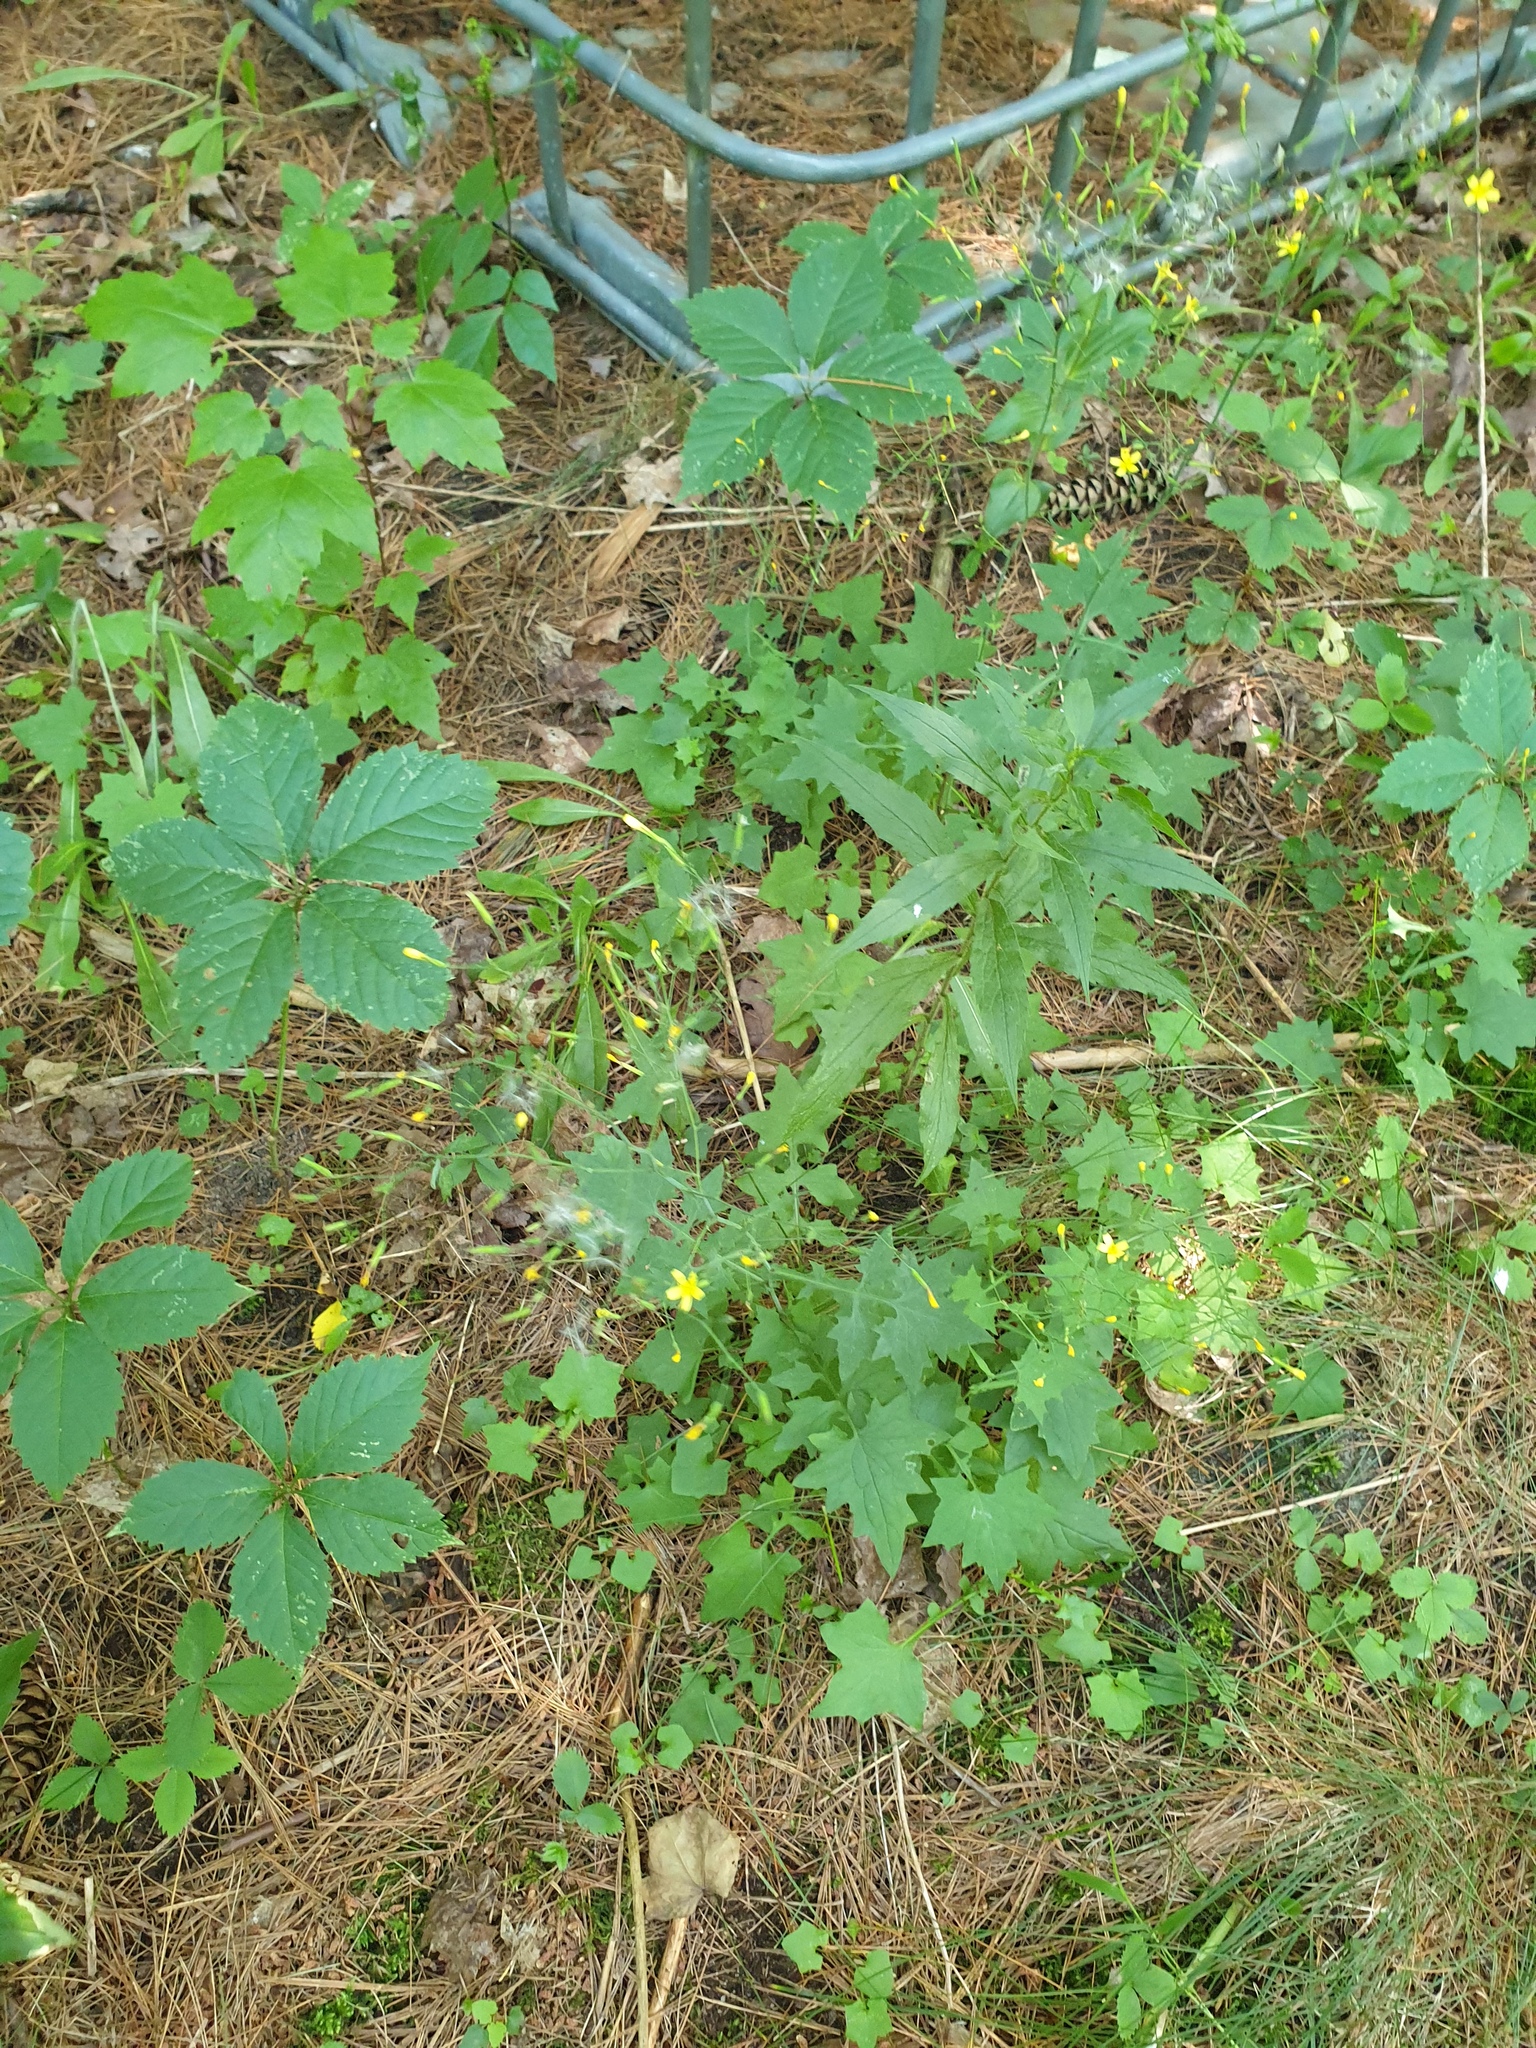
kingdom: Plantae
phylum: Tracheophyta
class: Magnoliopsida
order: Asterales
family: Asteraceae
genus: Mycelis
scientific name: Mycelis muralis
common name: Wall lettuce
